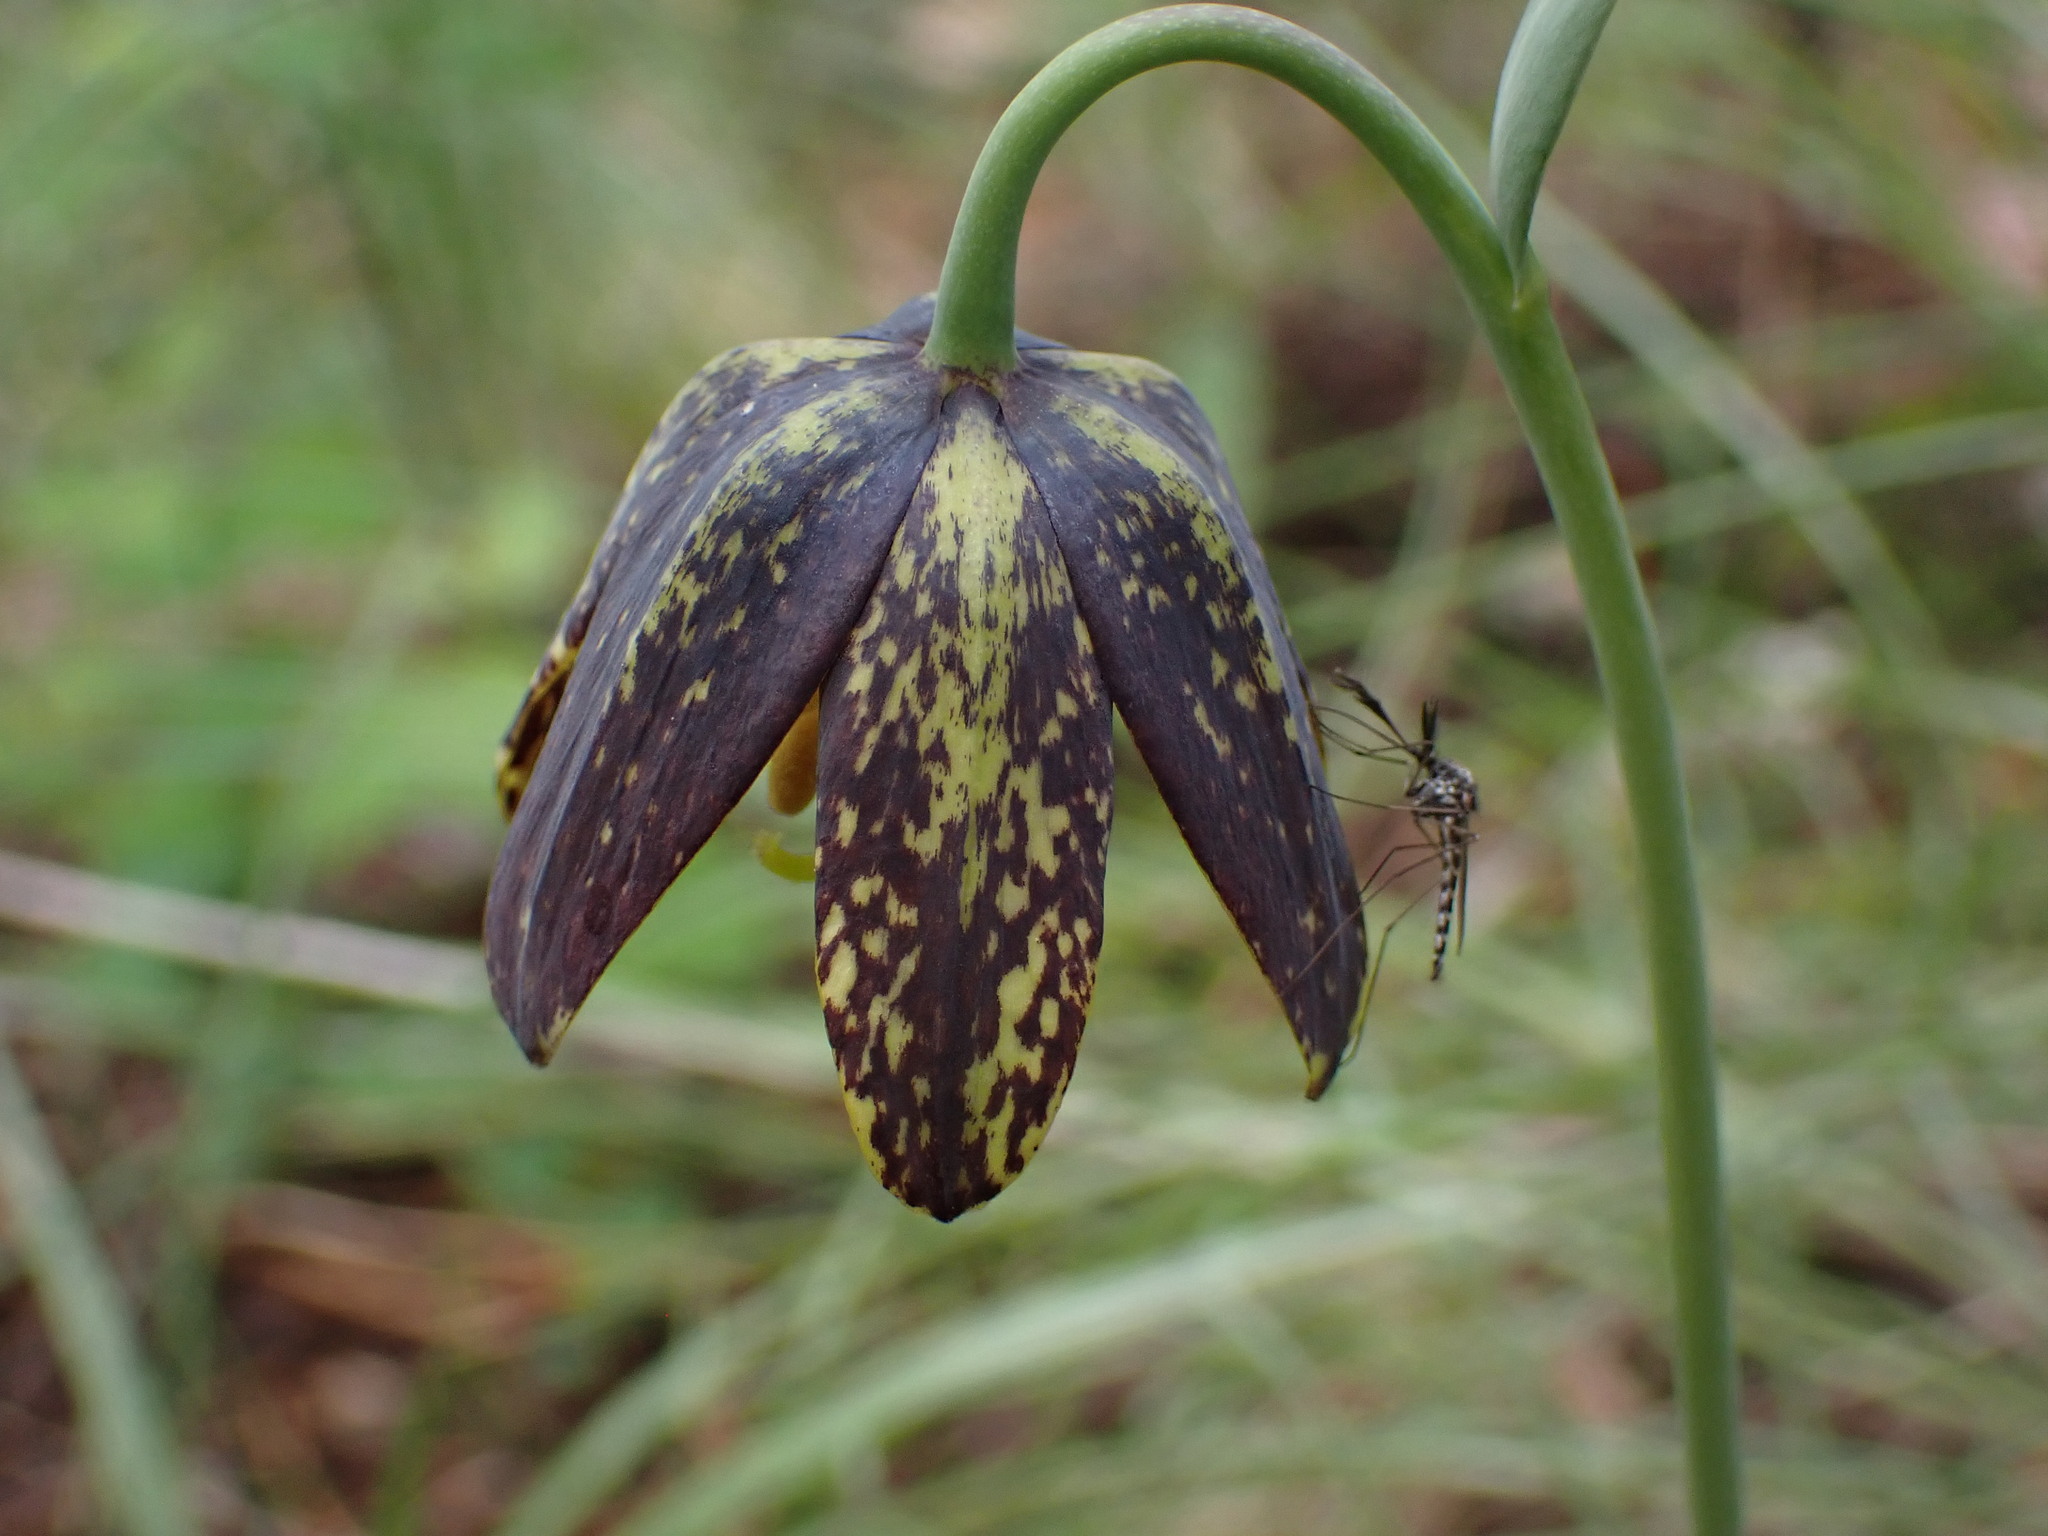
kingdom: Plantae
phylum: Tracheophyta
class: Liliopsida
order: Liliales
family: Liliaceae
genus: Fritillaria
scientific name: Fritillaria affinis
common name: Ojai fritillary
